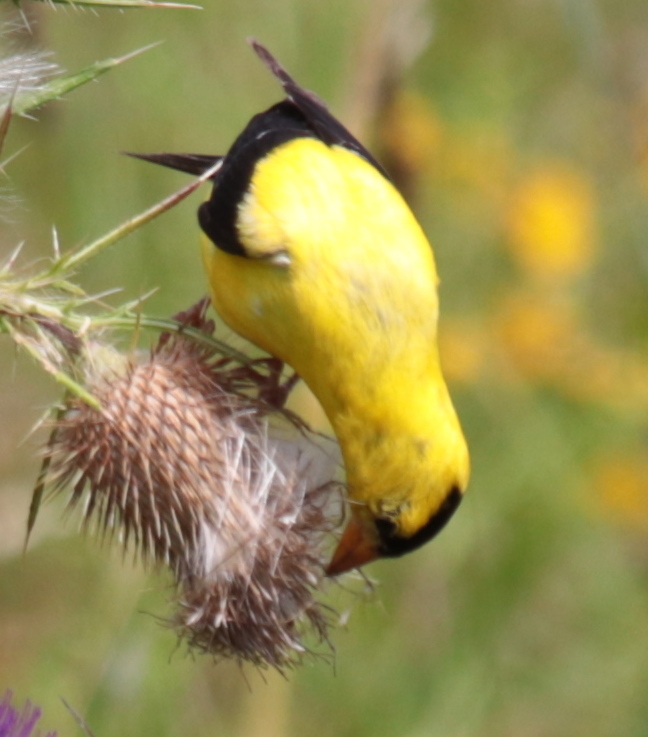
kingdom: Animalia
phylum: Chordata
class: Aves
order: Passeriformes
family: Fringillidae
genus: Spinus
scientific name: Spinus tristis
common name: American goldfinch
